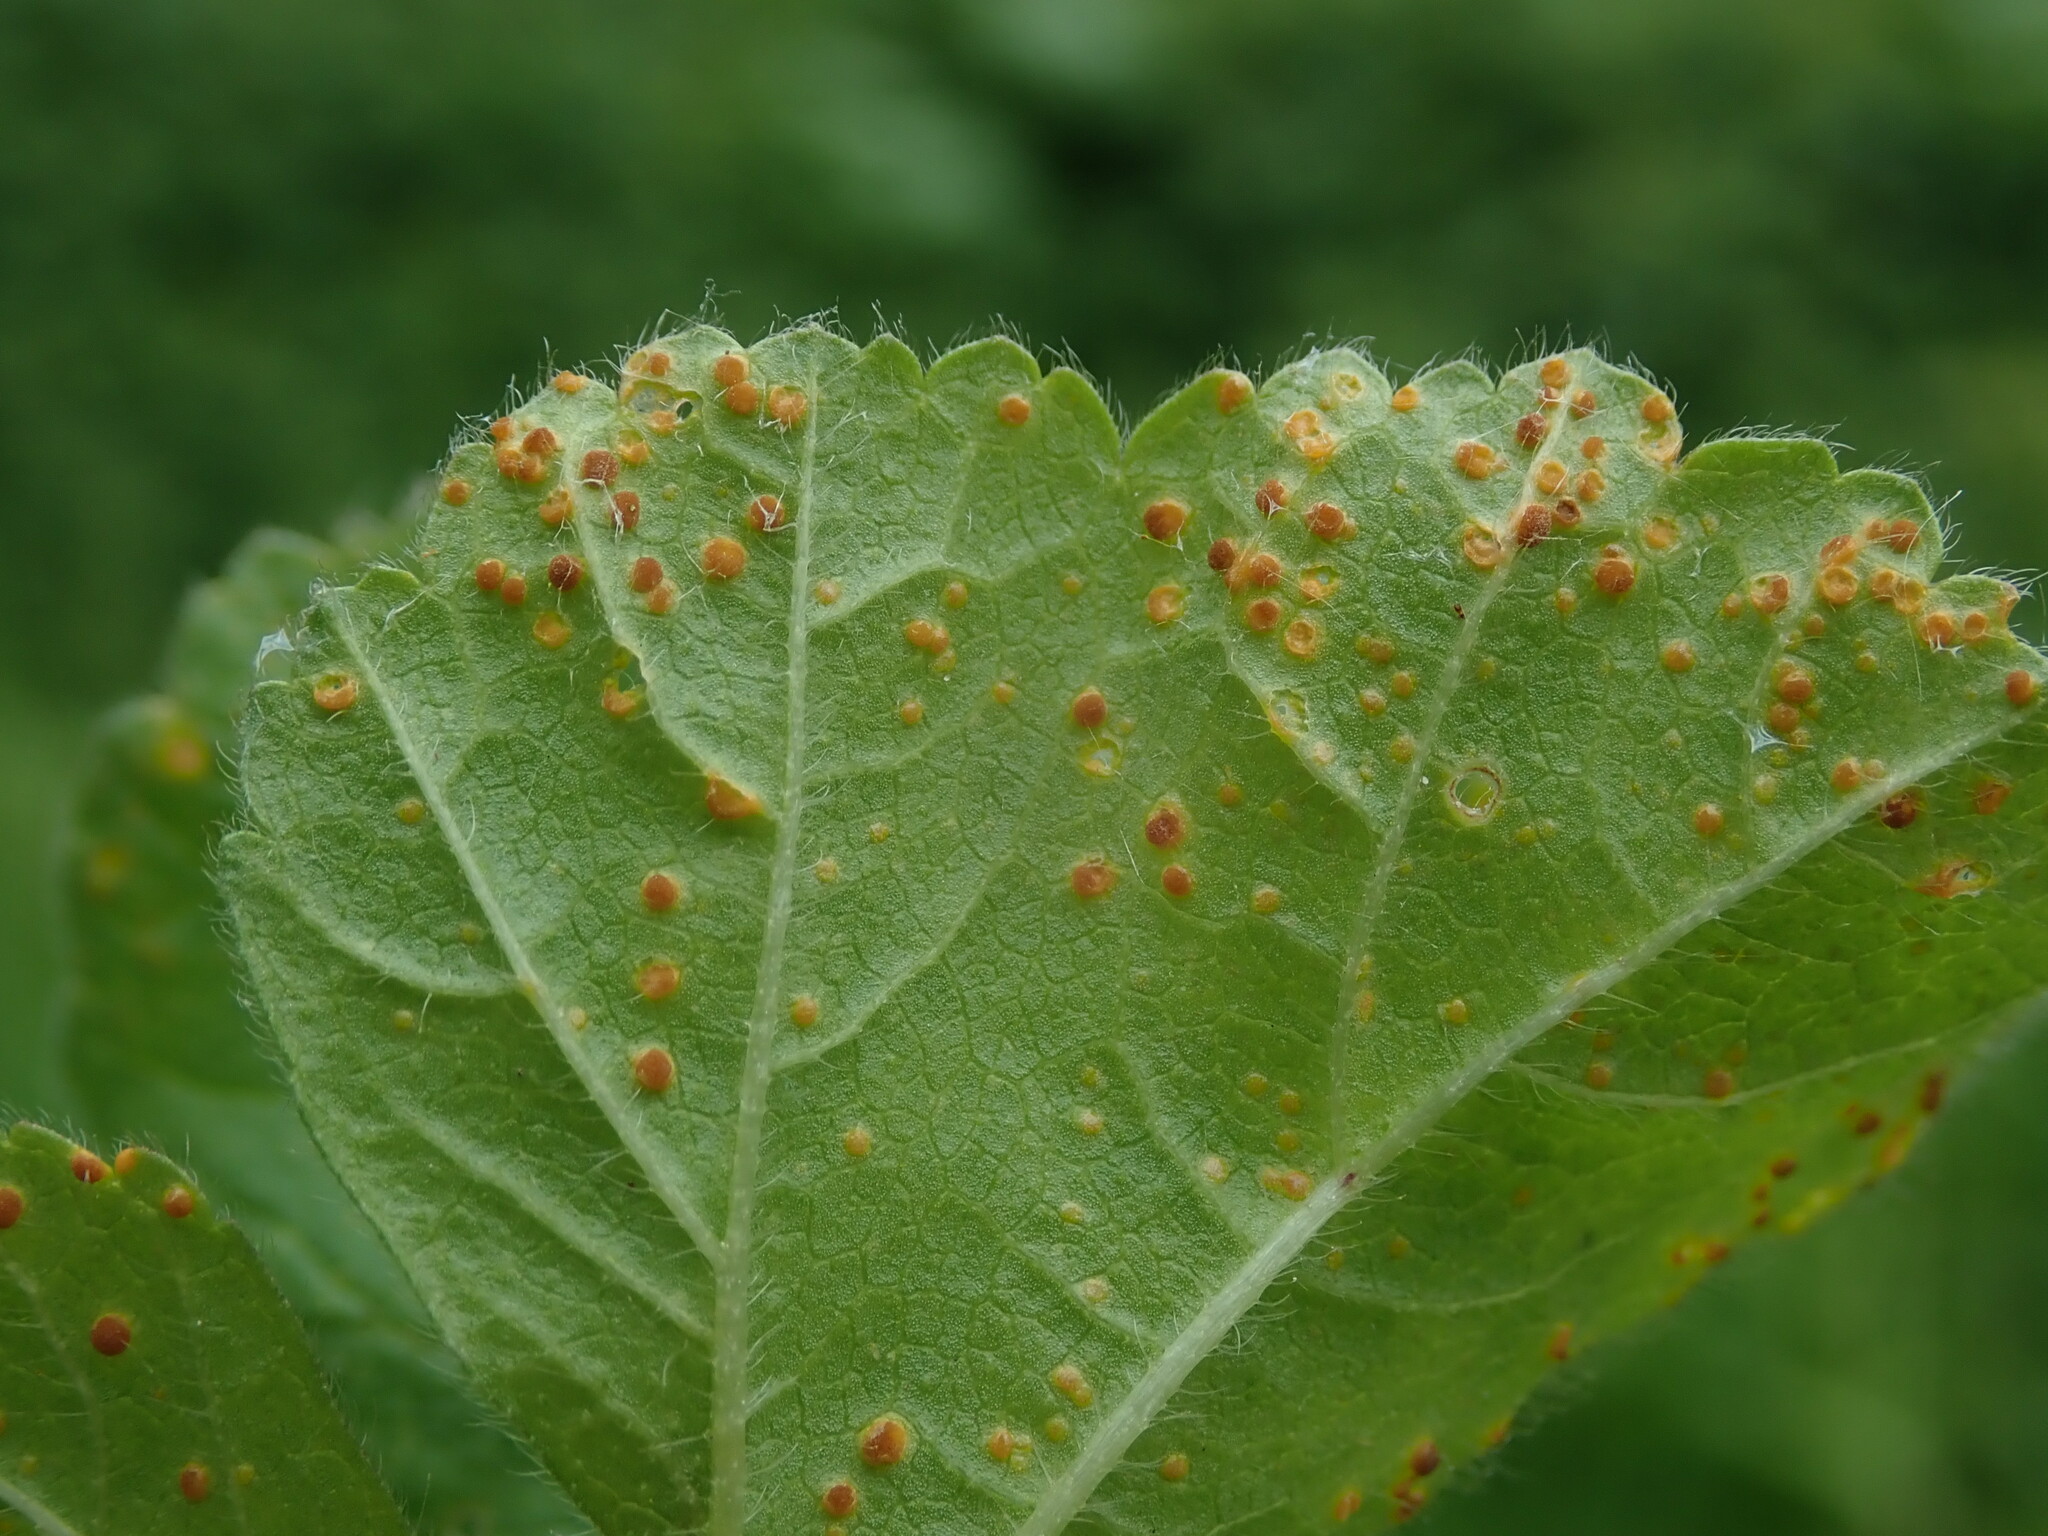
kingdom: Fungi
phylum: Basidiomycota
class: Pucciniomycetes
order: Pucciniales
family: Pucciniaceae
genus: Puccinia
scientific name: Puccinia malvacearum
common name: Hollyhock rust
